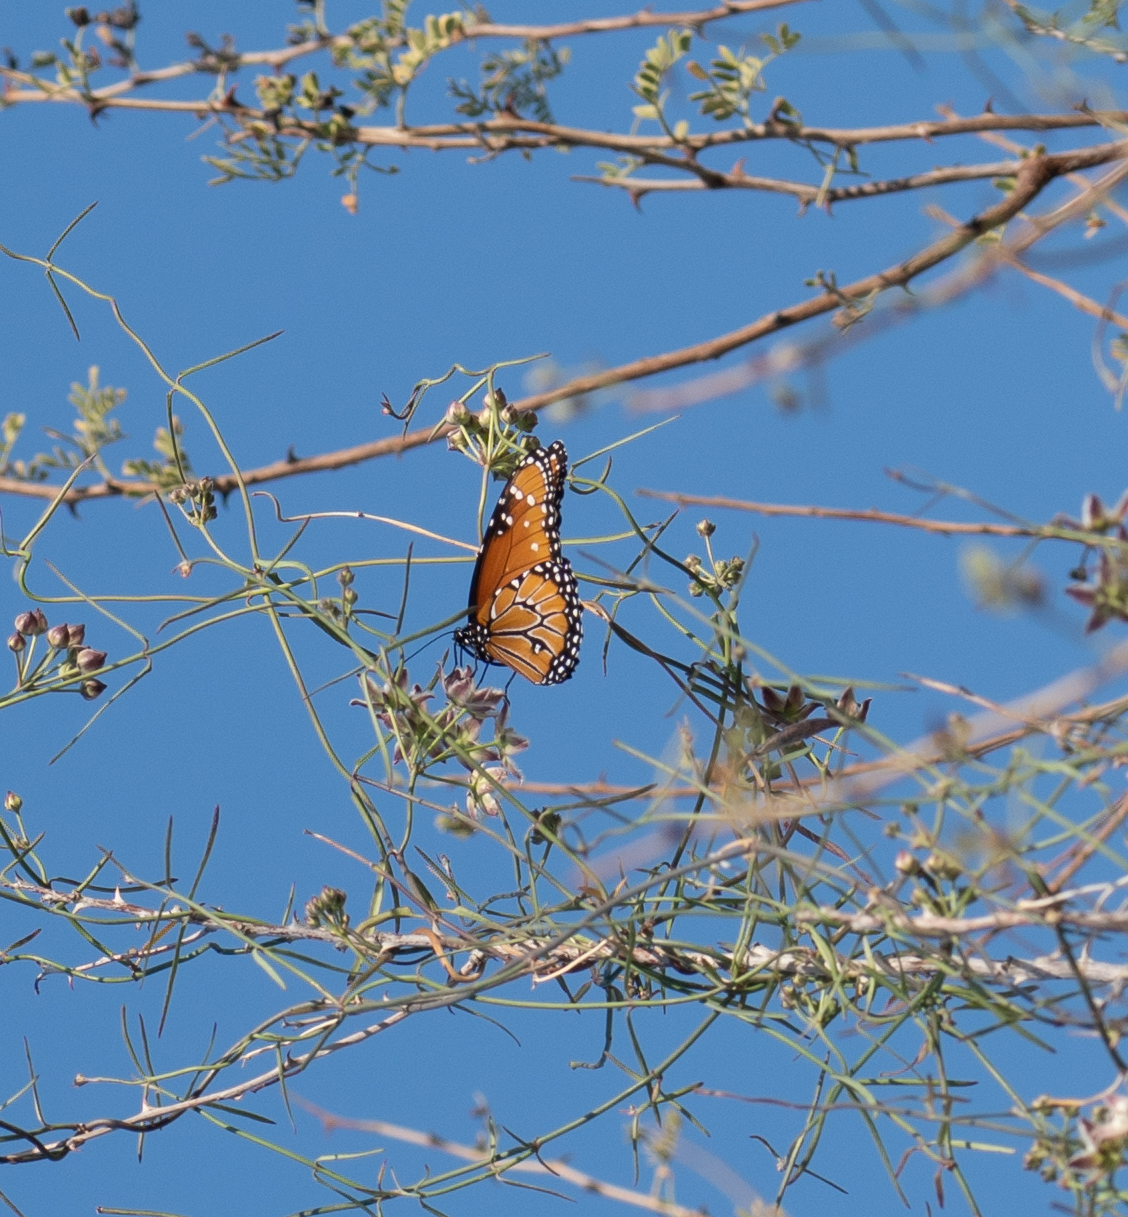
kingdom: Animalia
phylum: Arthropoda
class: Insecta
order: Lepidoptera
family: Nymphalidae
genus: Danaus
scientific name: Danaus gilippus
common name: Queen
